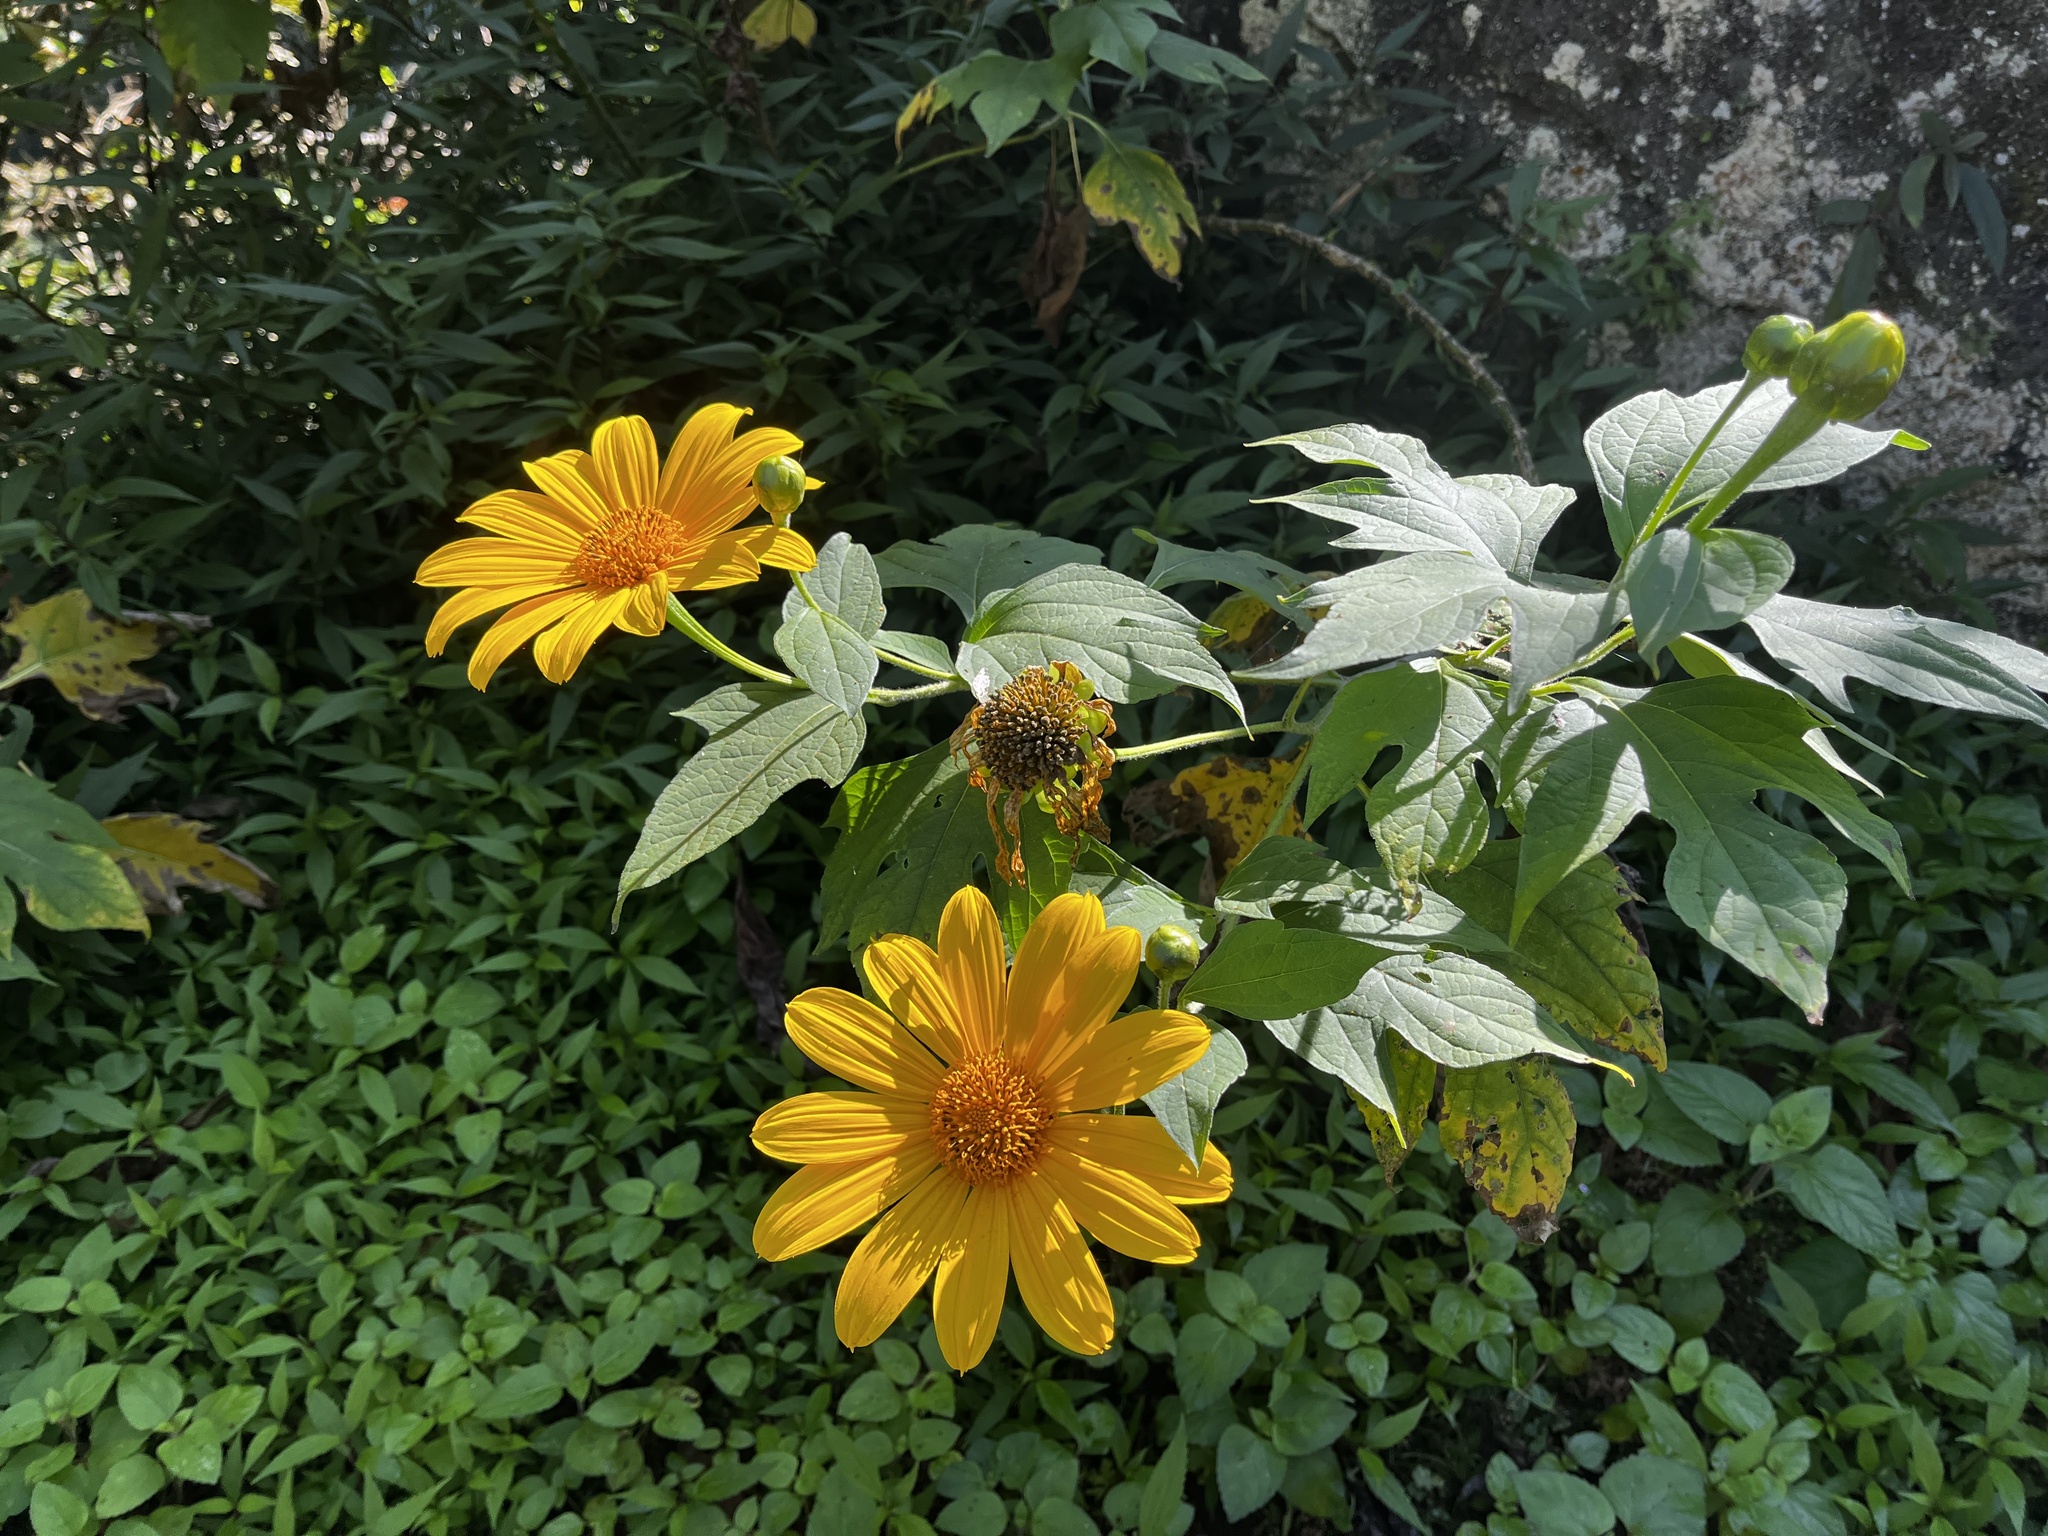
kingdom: Plantae
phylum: Tracheophyta
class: Magnoliopsida
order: Asterales
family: Asteraceae
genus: Tithonia
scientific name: Tithonia diversifolia
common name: Tree marigold
